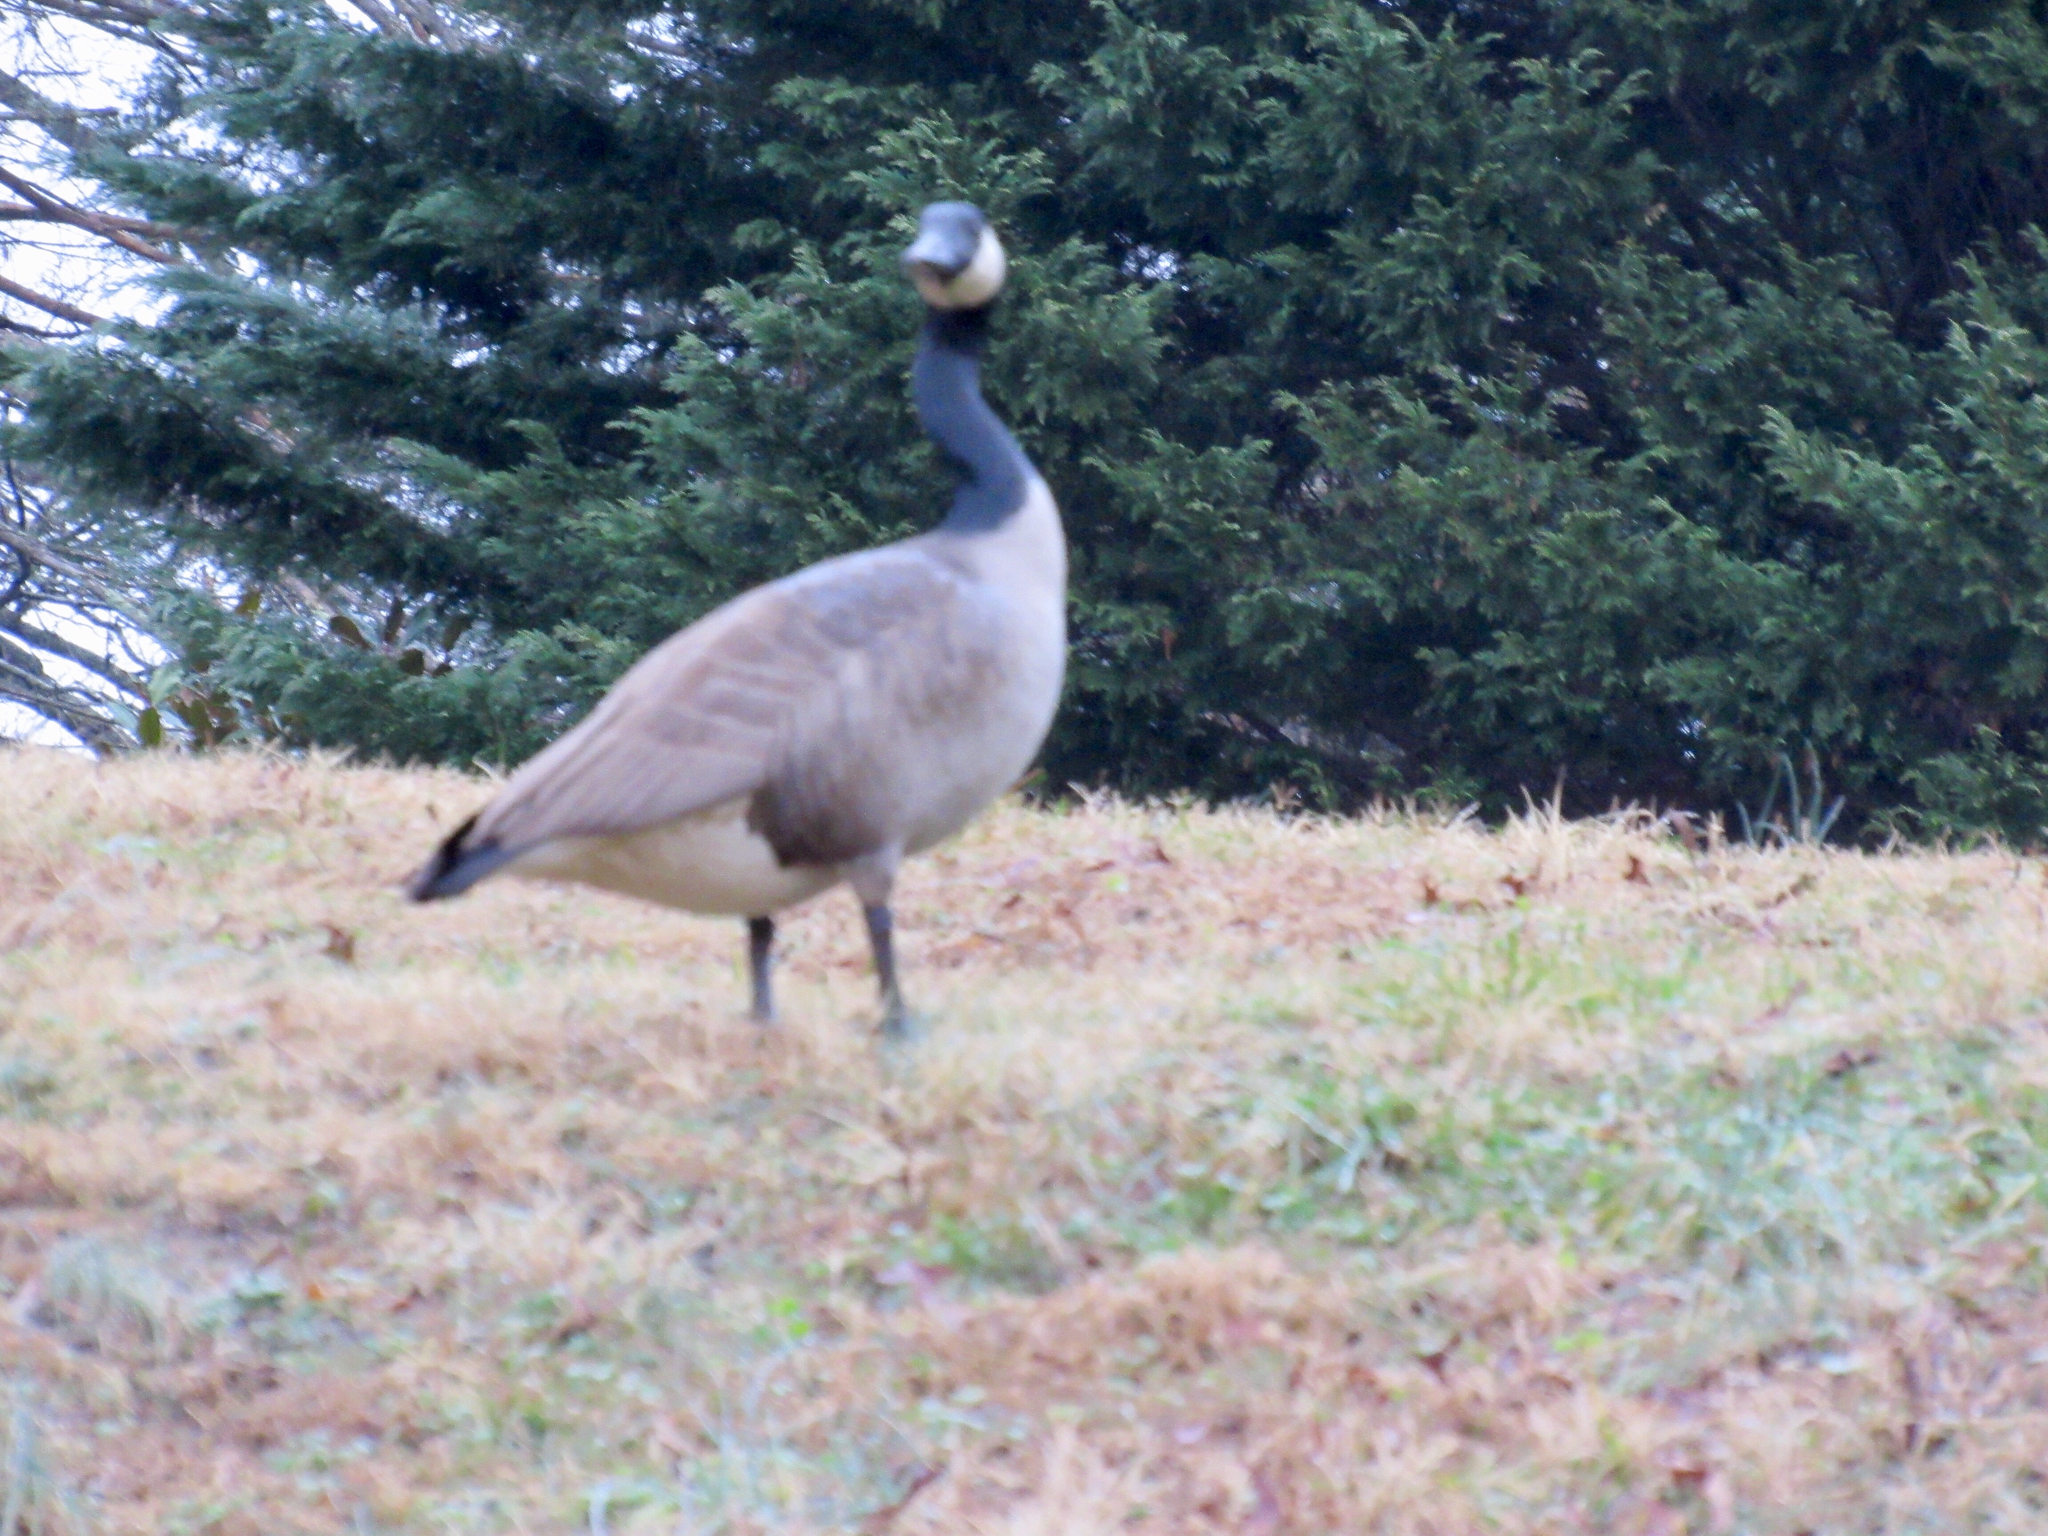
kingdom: Animalia
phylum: Chordata
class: Aves
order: Anseriformes
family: Anatidae
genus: Branta
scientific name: Branta canadensis
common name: Canada goose
